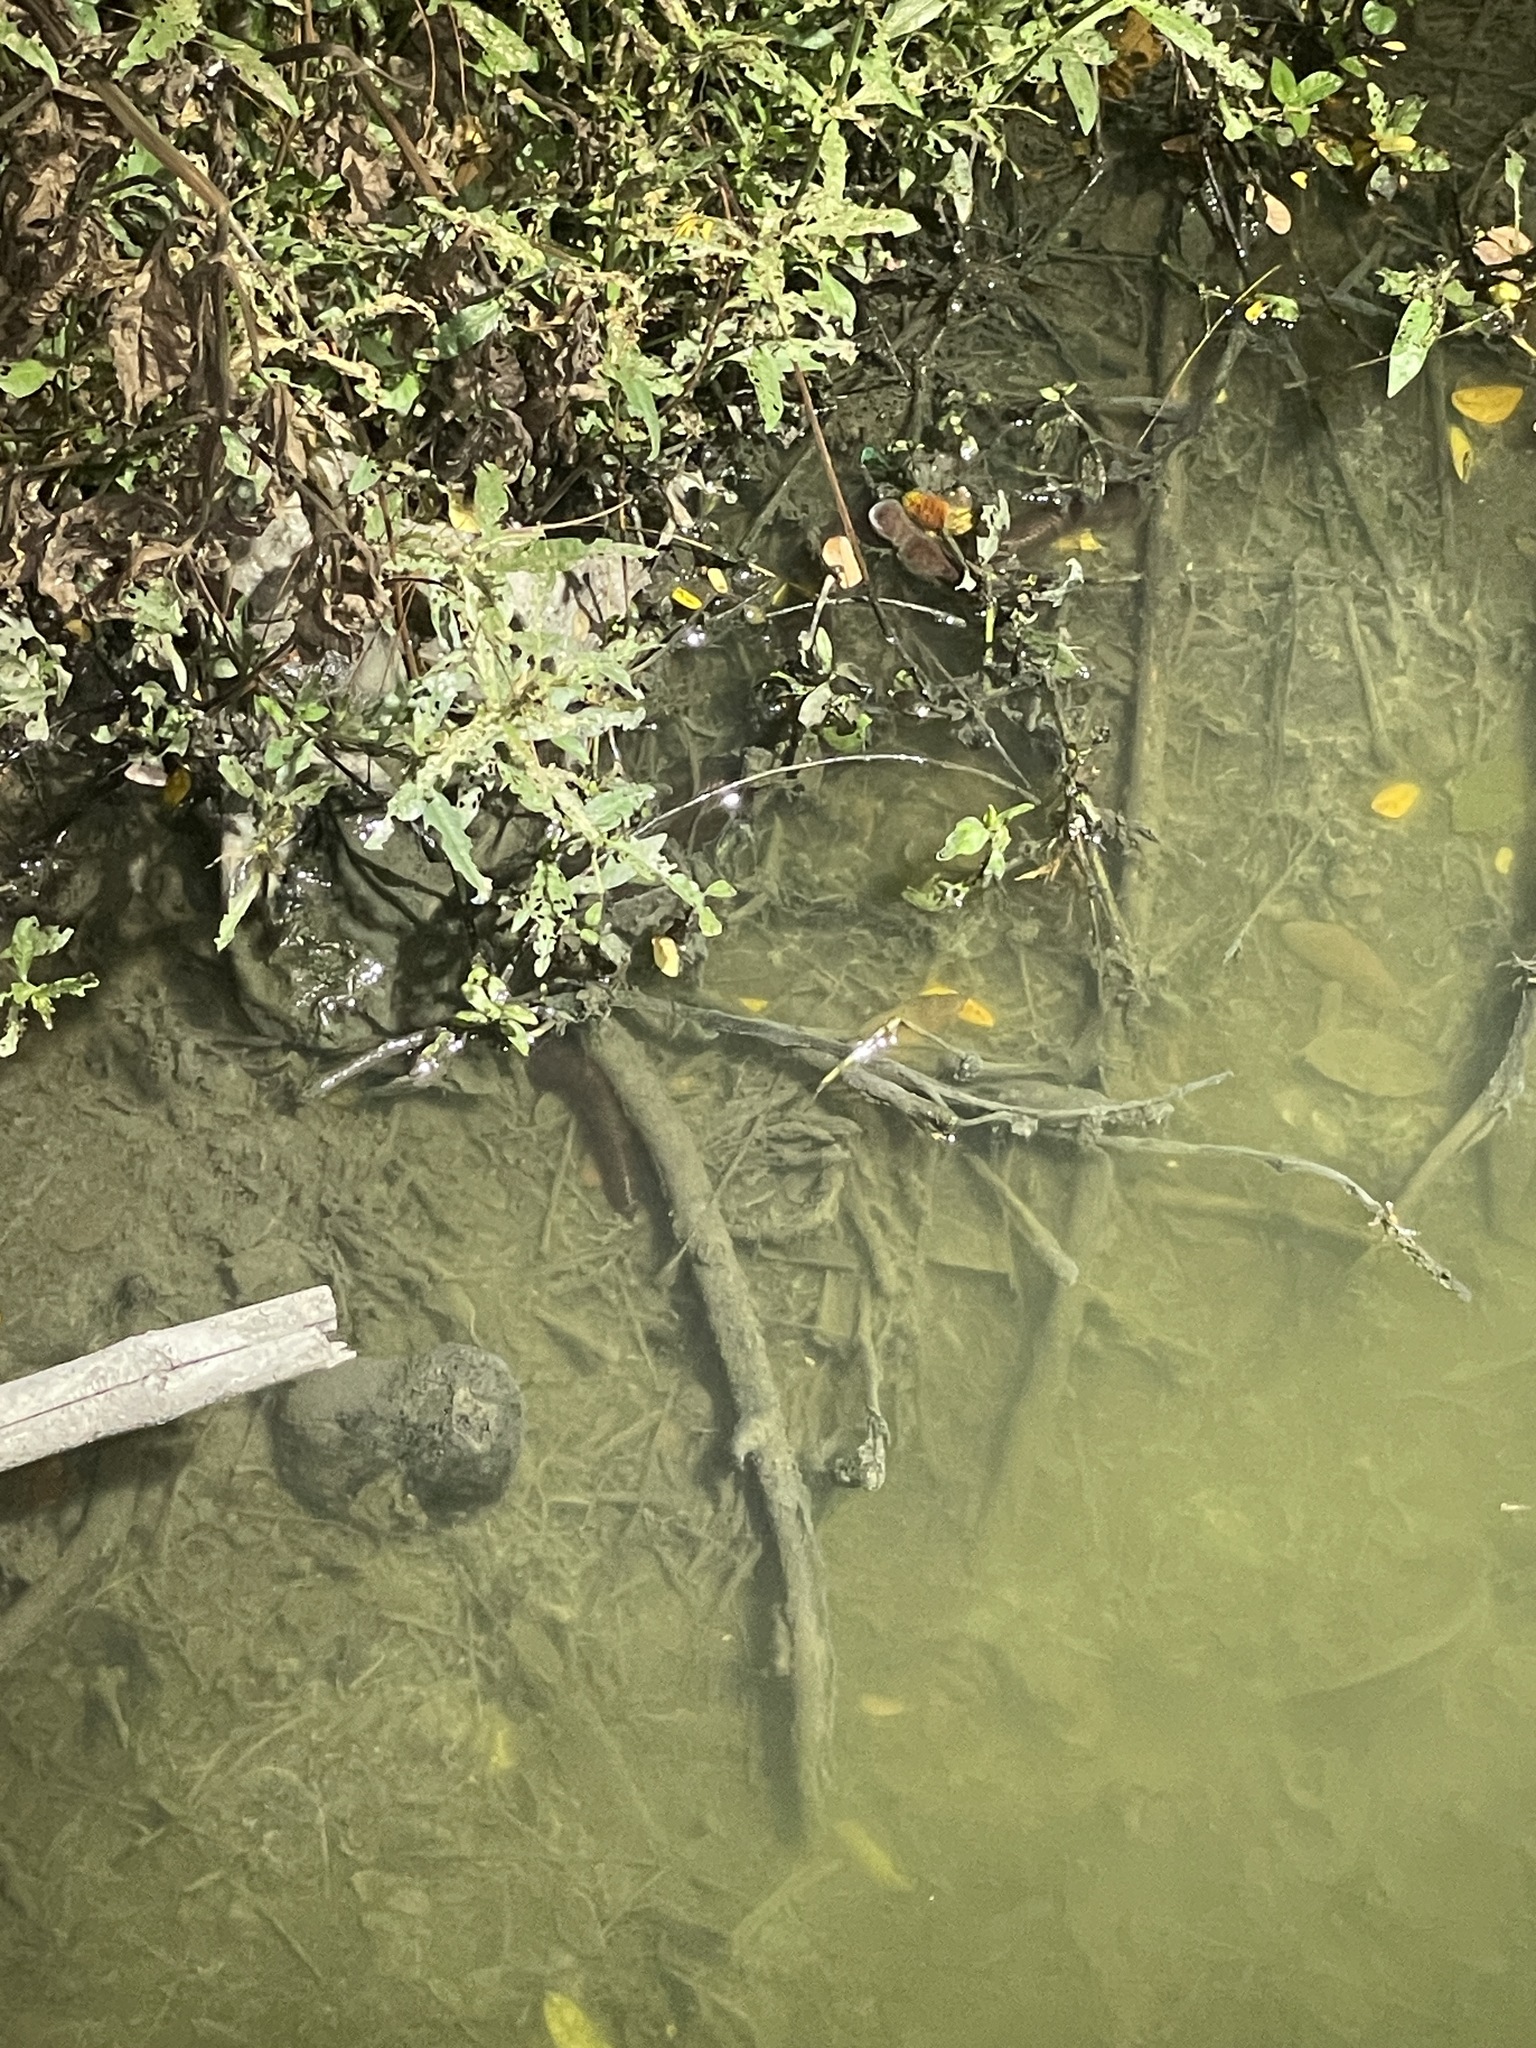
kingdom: Animalia
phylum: Chordata
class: Squamata
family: Cylindrophiidae
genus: Cylindrophis
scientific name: Cylindrophis jodiae
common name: Jodi’s pipe-snake
